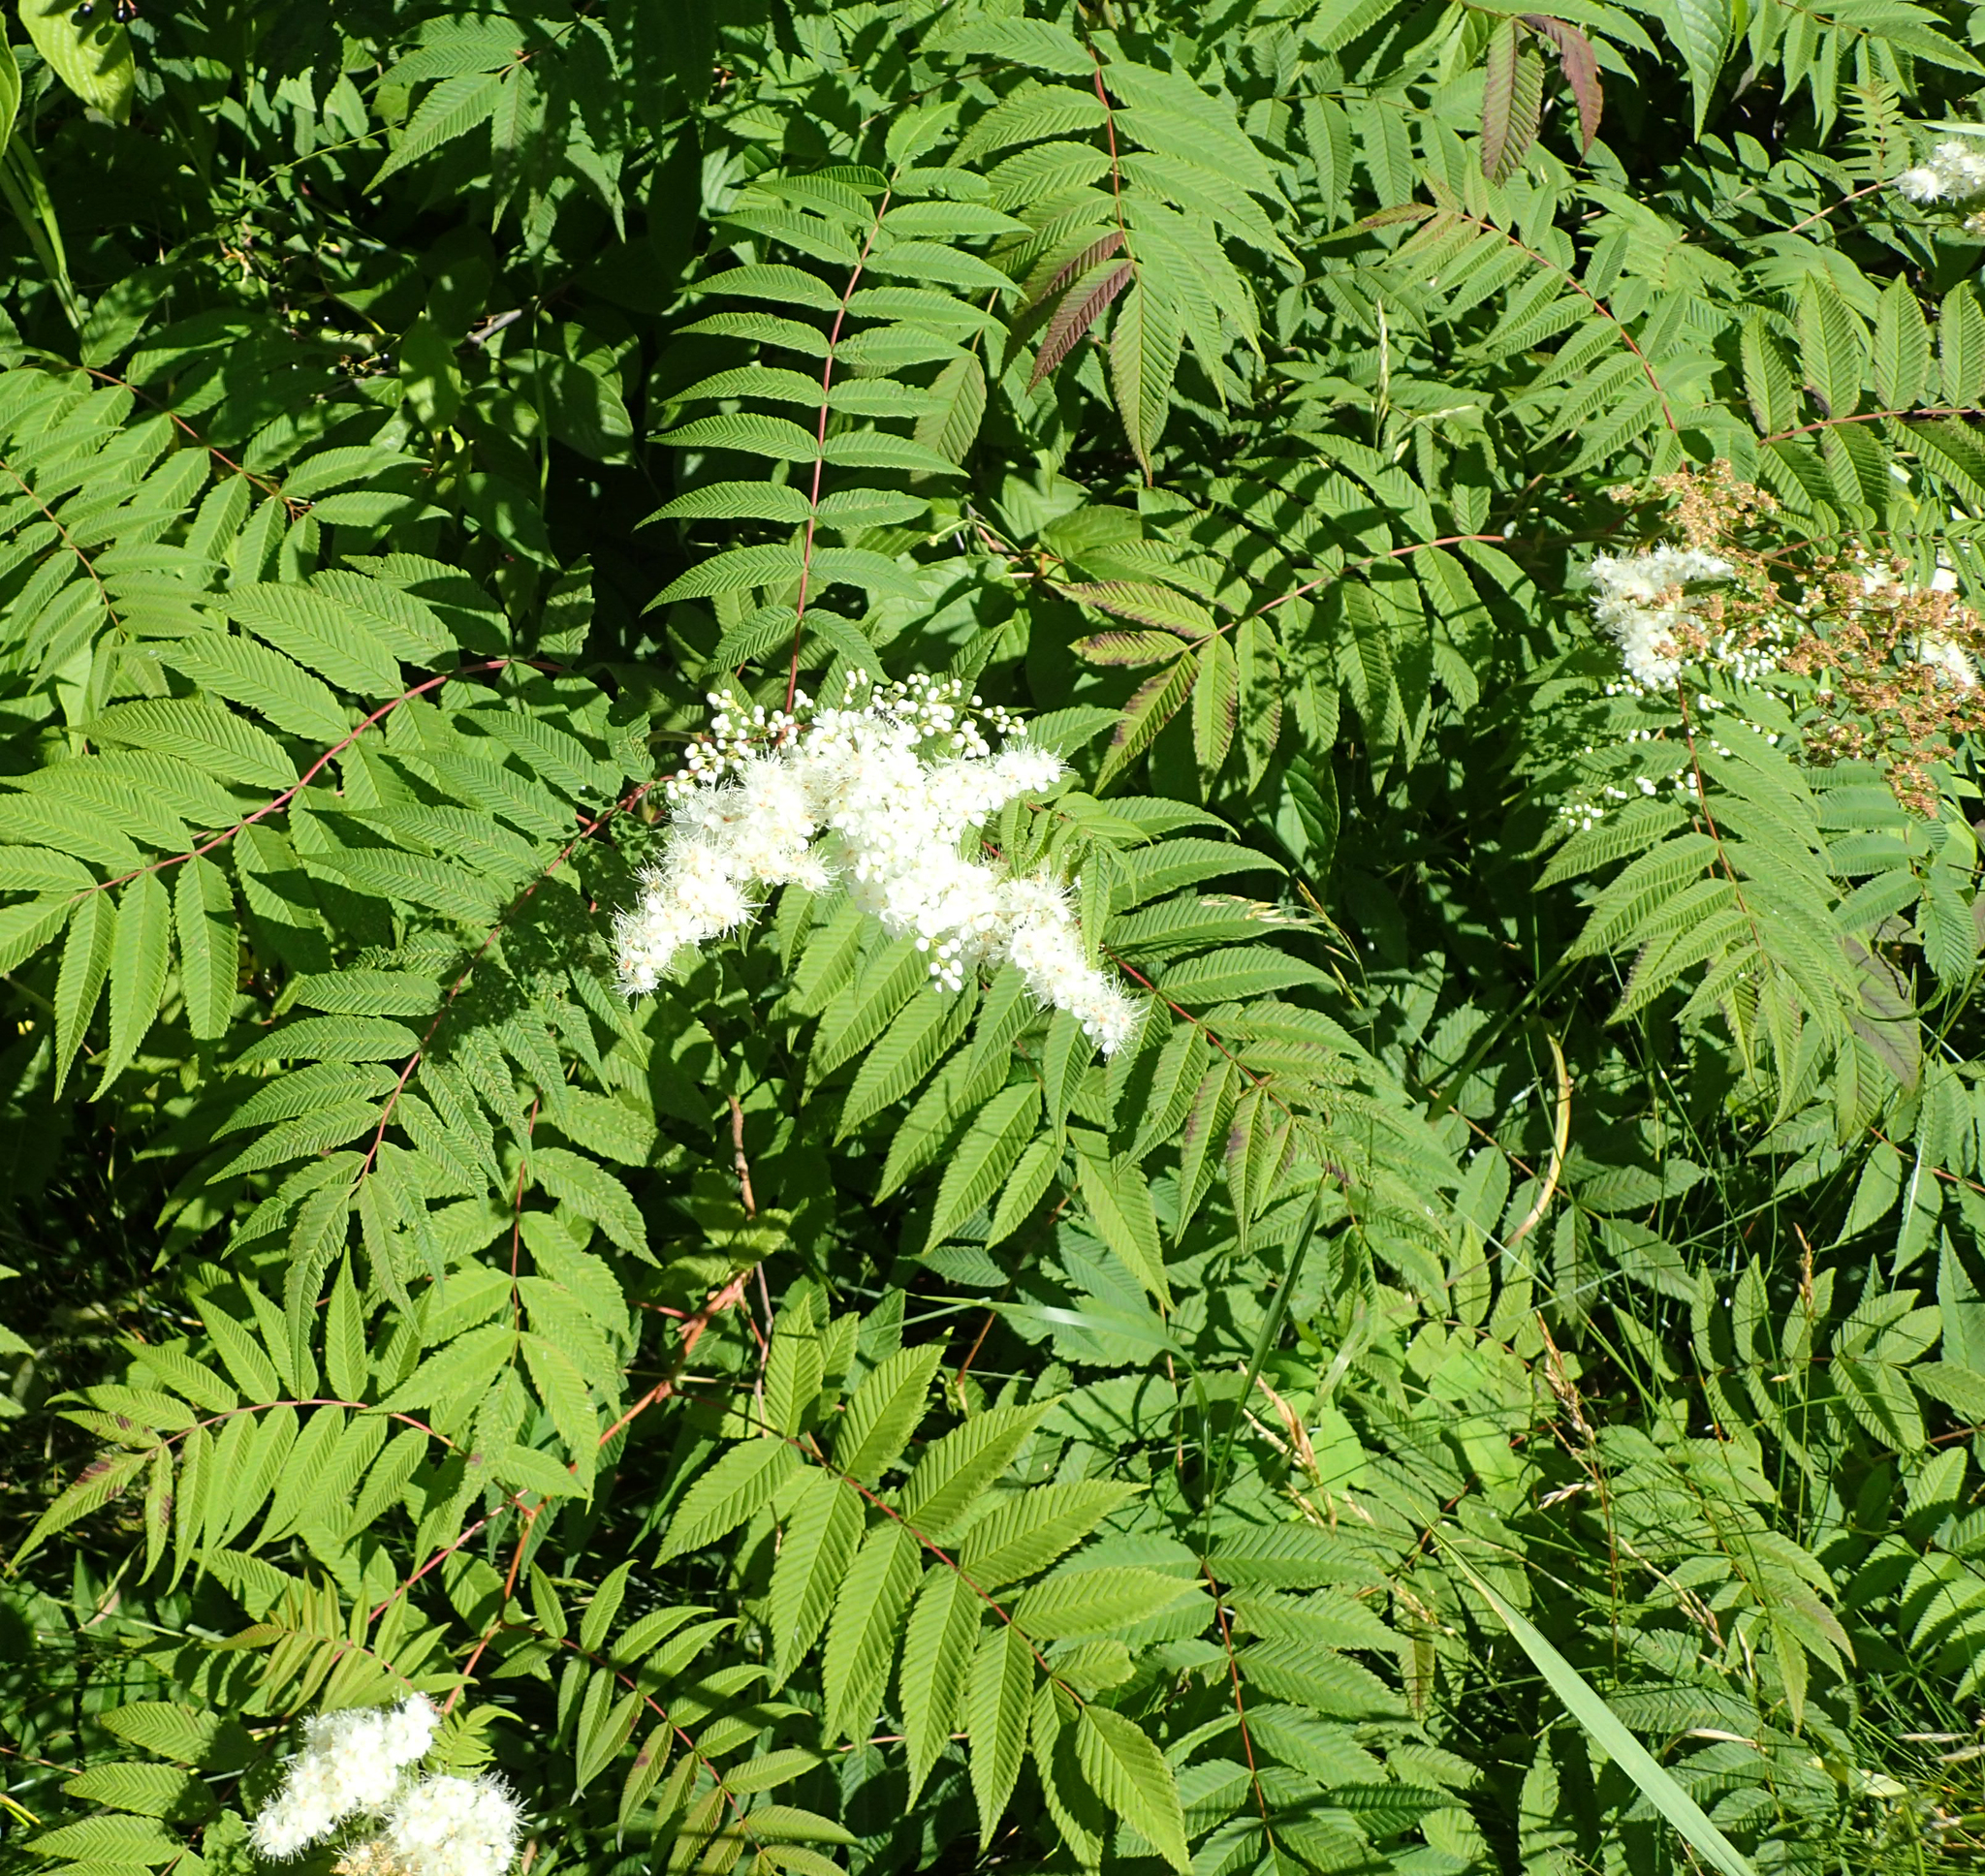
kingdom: Plantae
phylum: Tracheophyta
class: Magnoliopsida
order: Rosales
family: Rosaceae
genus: Sorbaria
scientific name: Sorbaria sorbifolia
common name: False spiraea
